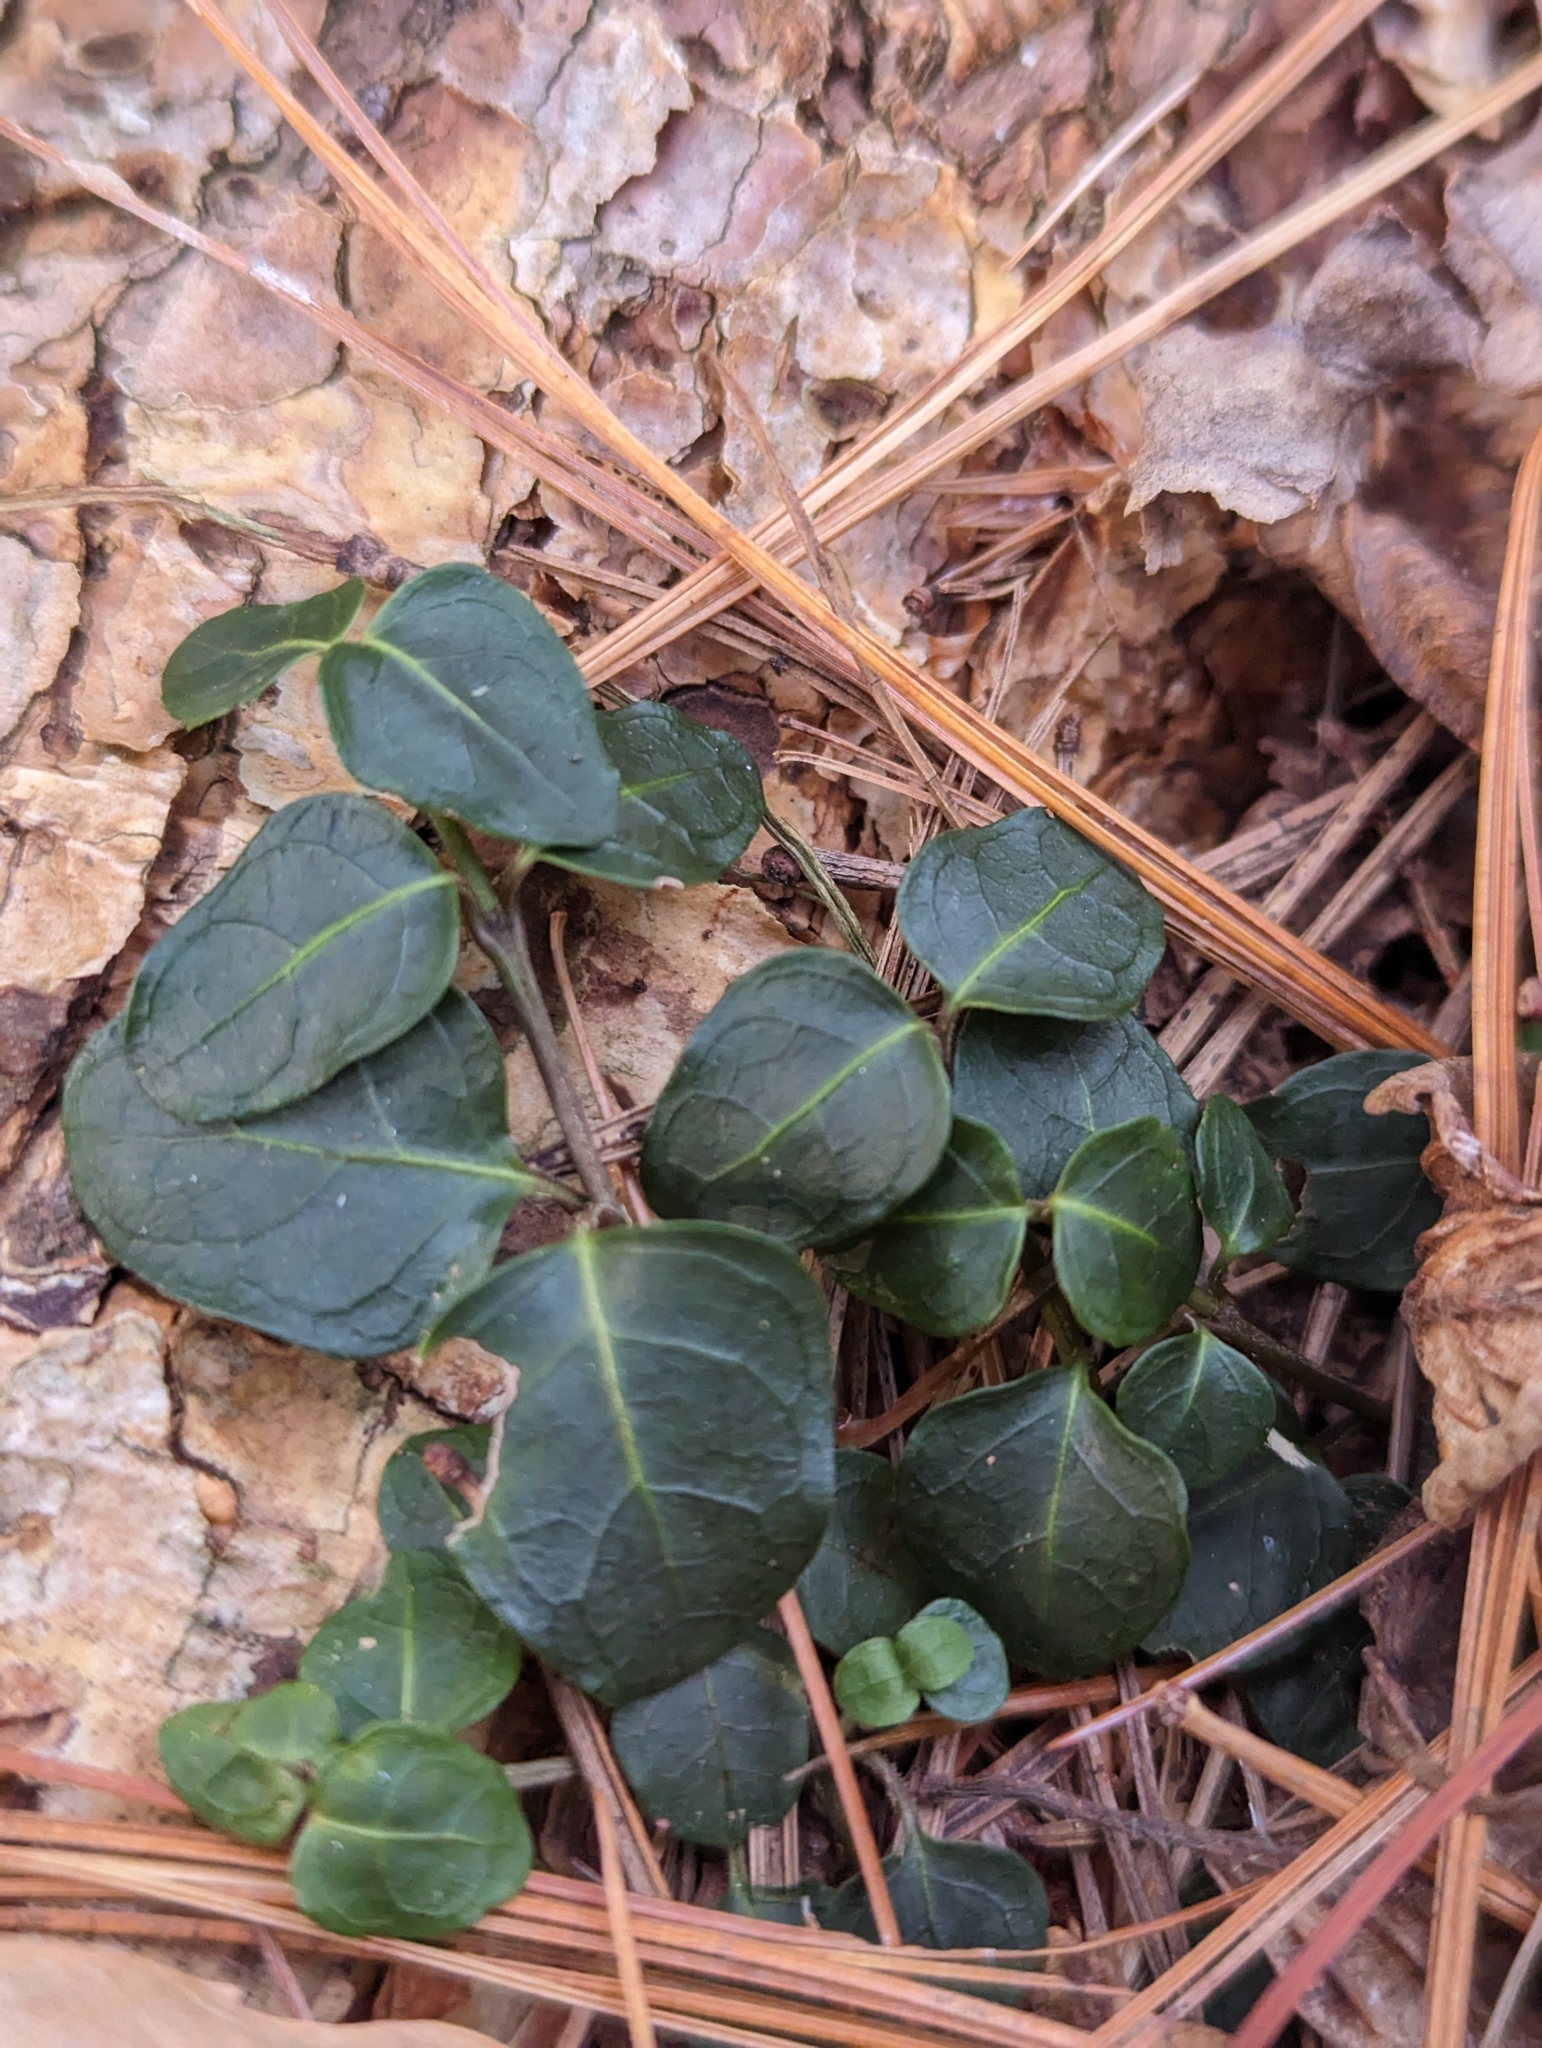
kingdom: Plantae
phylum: Tracheophyta
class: Magnoliopsida
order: Gentianales
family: Rubiaceae
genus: Mitchella
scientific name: Mitchella repens
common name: Partridge-berry
